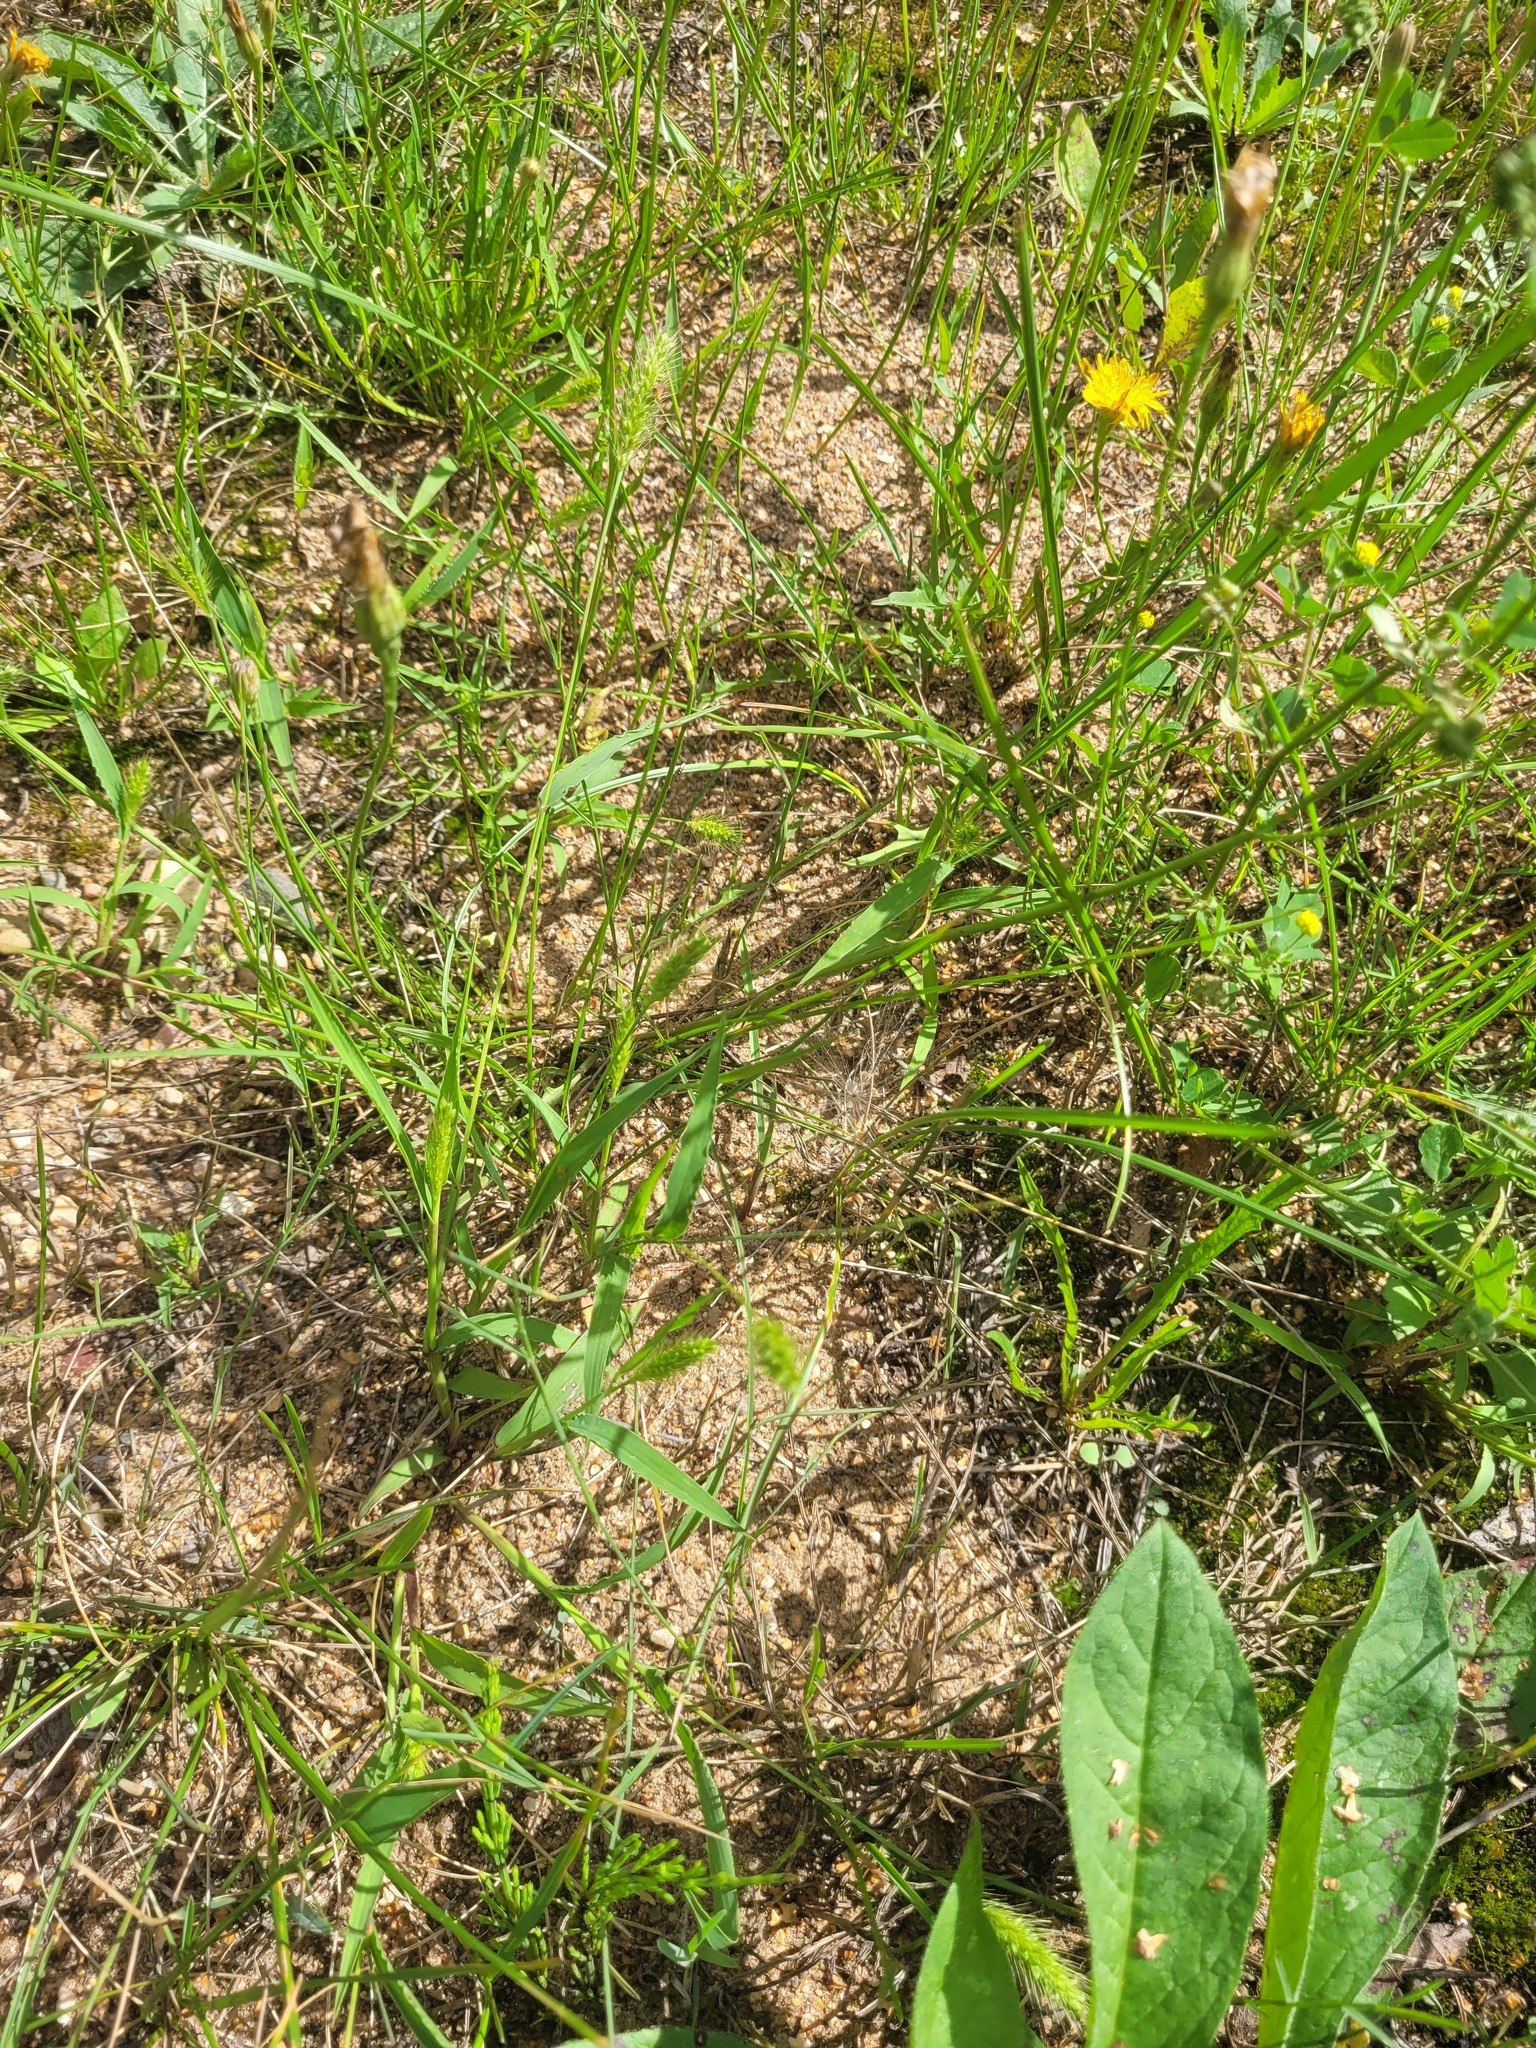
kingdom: Plantae
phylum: Tracheophyta
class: Liliopsida
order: Poales
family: Poaceae
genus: Setaria
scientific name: Setaria viridis
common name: Green bristlegrass
